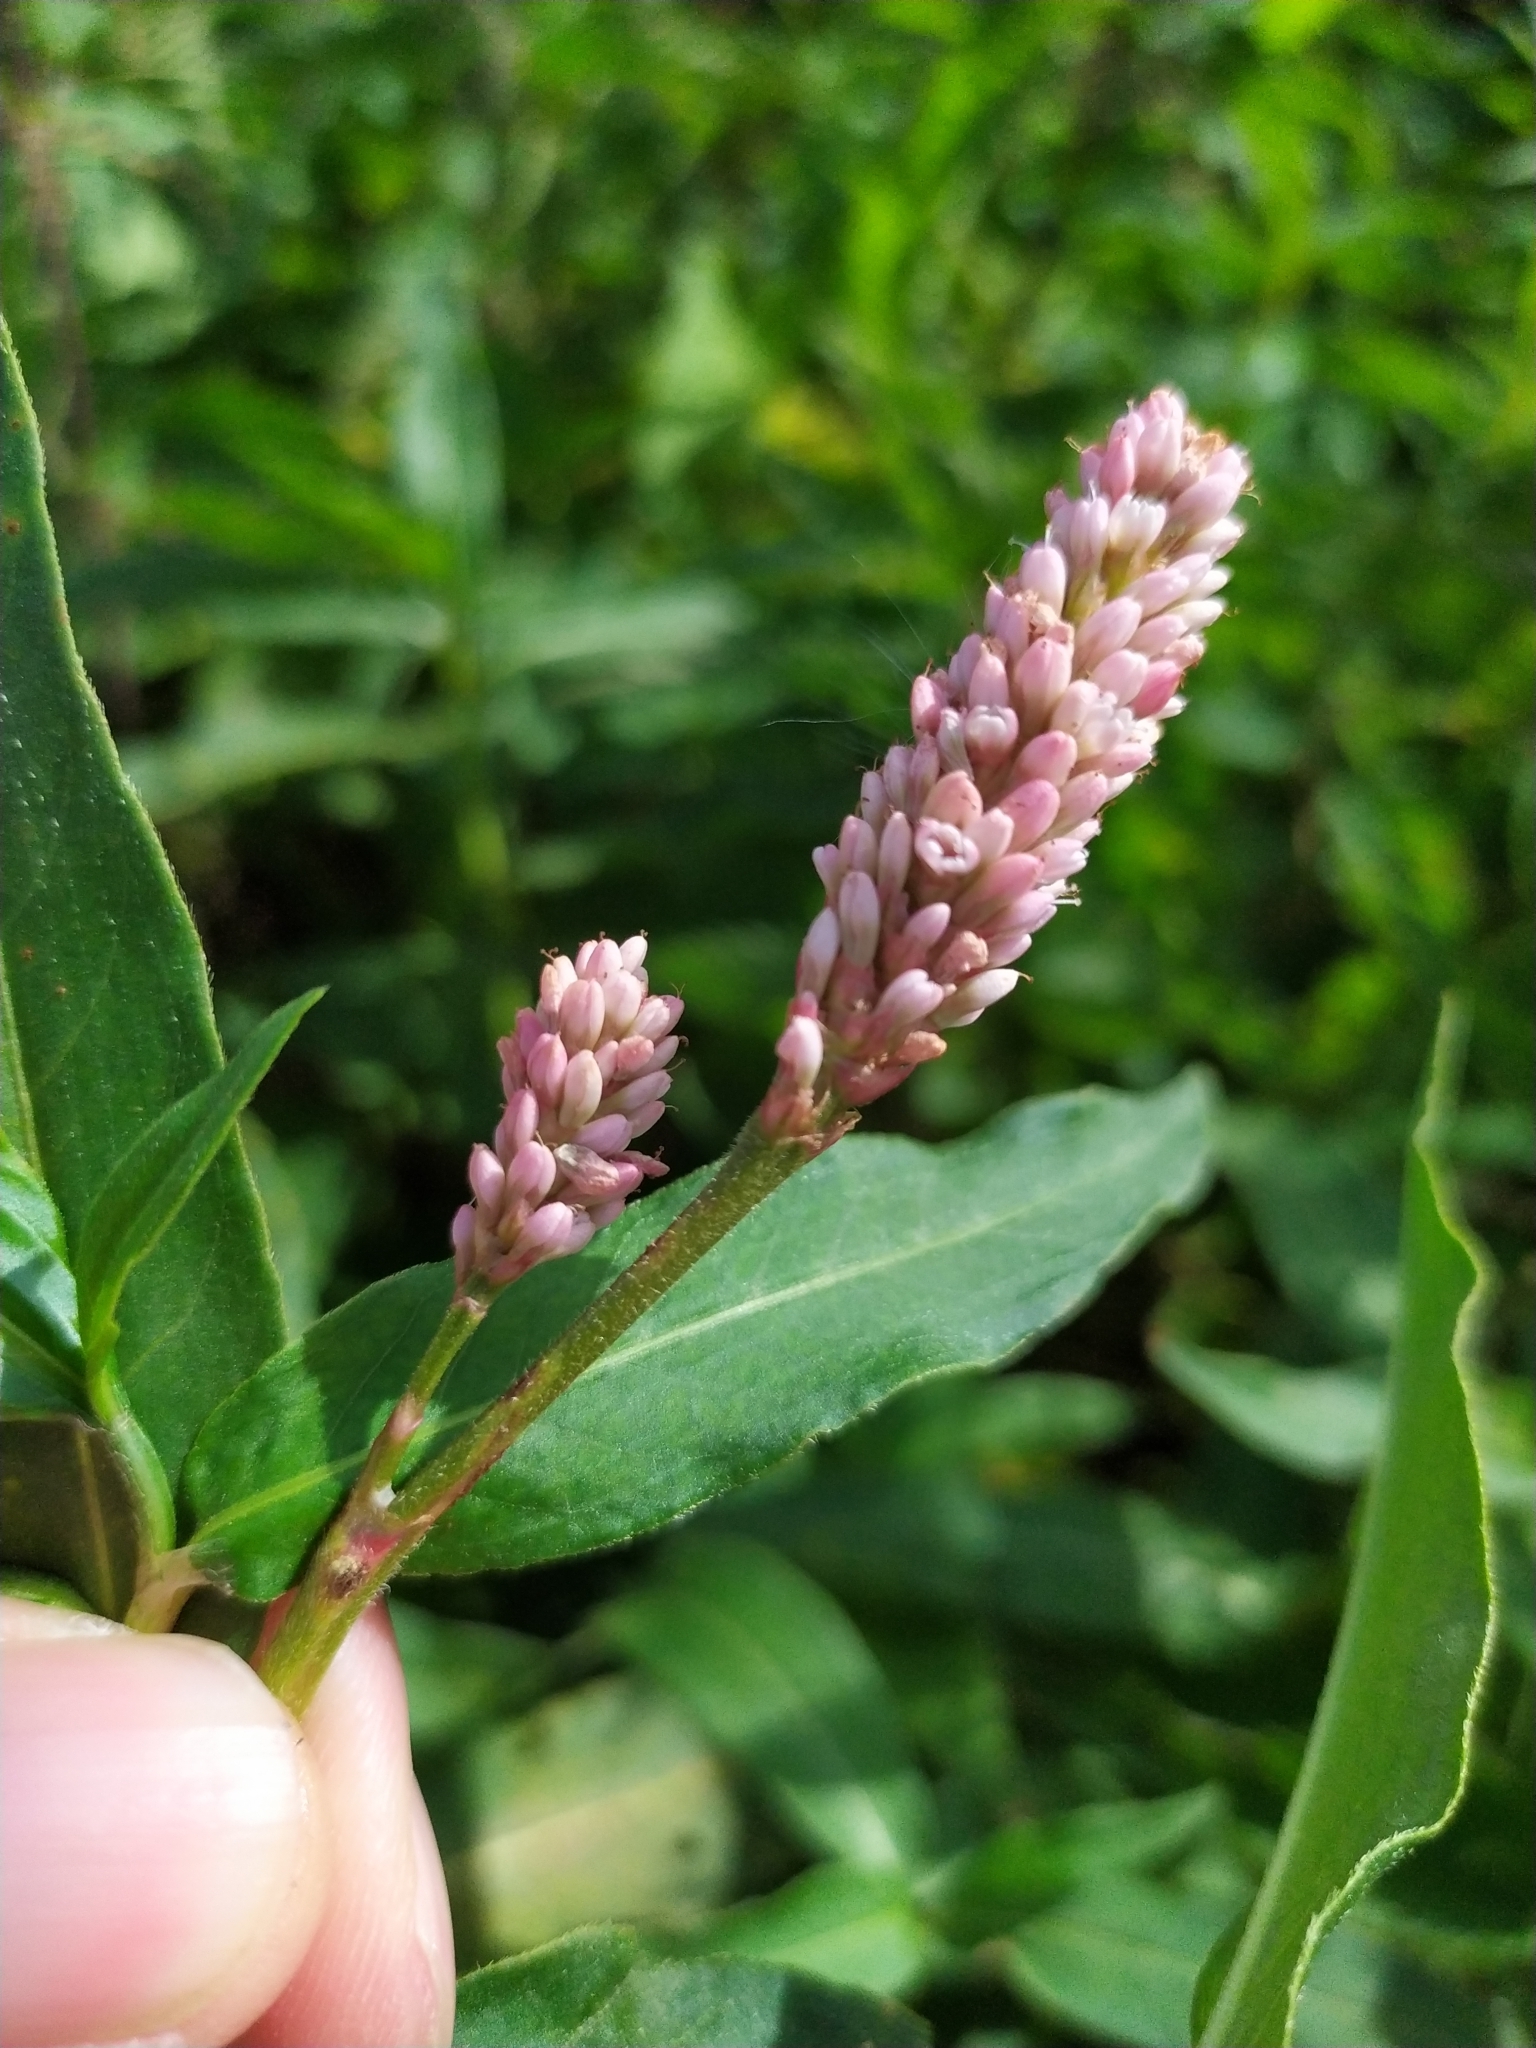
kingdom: Plantae
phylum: Tracheophyta
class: Magnoliopsida
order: Caryophyllales
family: Polygonaceae
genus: Persicaria
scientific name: Persicaria amphibia
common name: Amphibious bistort
